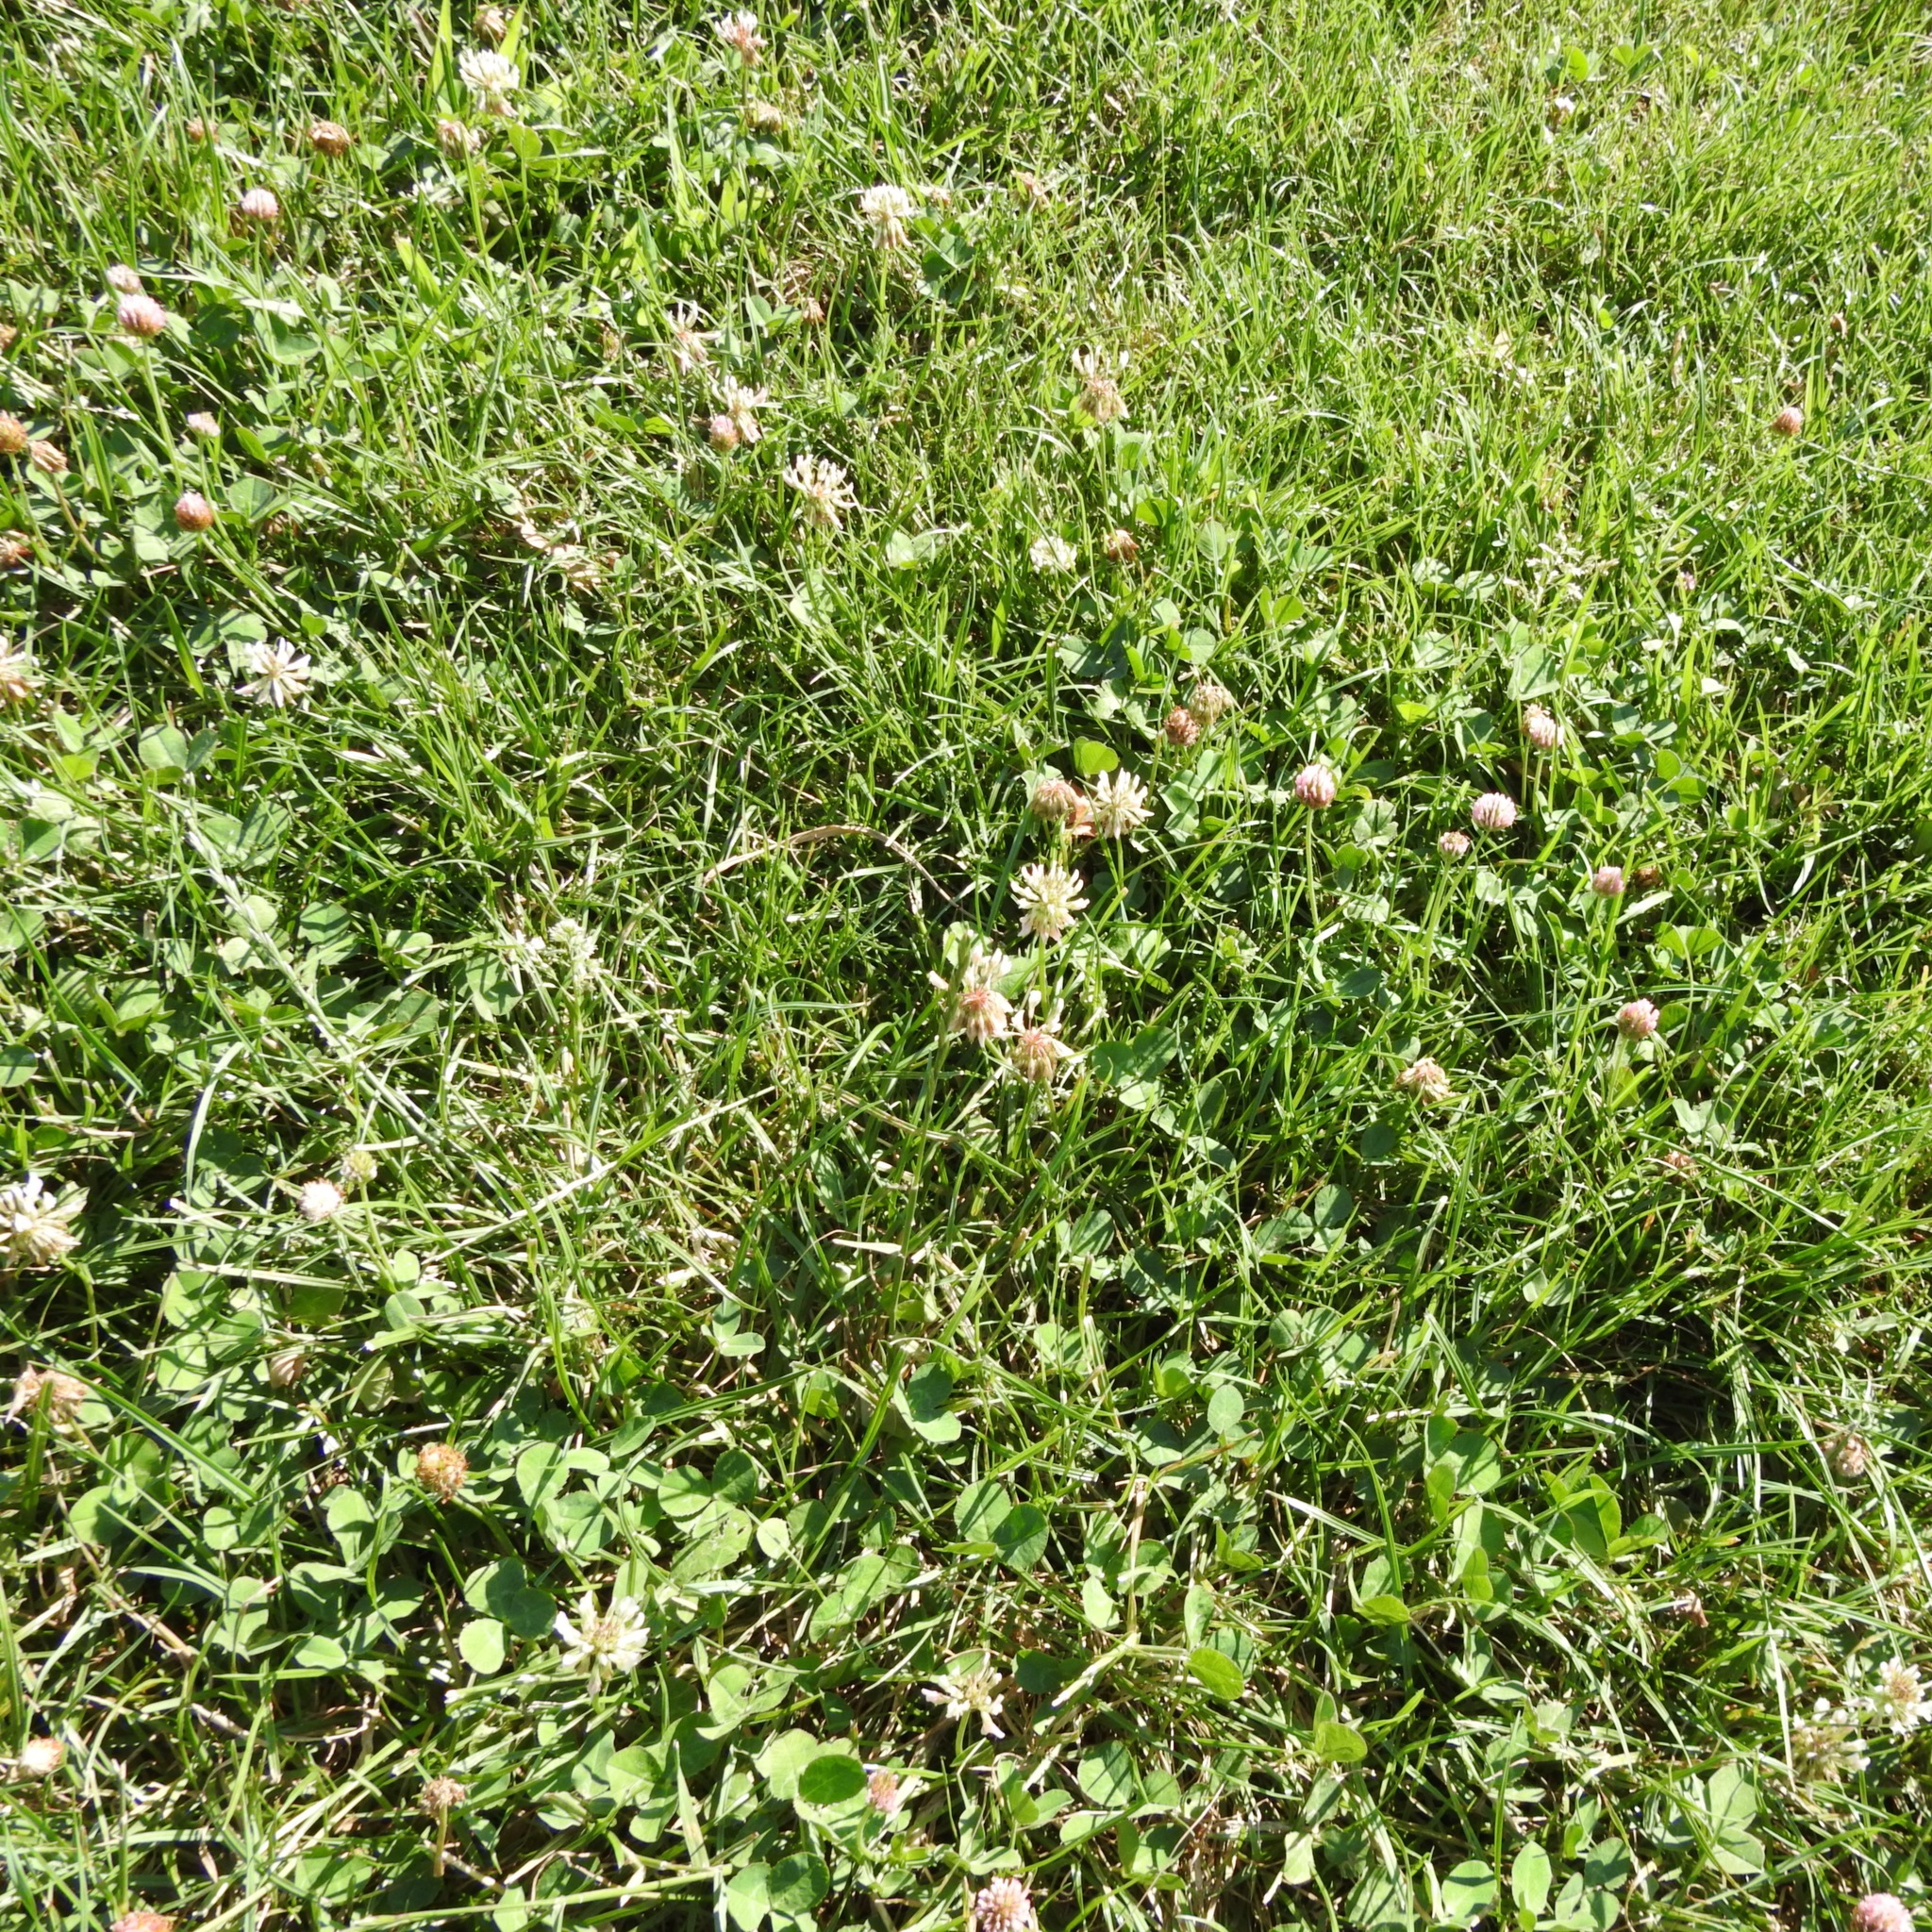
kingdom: Plantae
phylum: Tracheophyta
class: Magnoliopsida
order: Fabales
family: Fabaceae
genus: Trifolium
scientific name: Trifolium repens
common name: White clover
